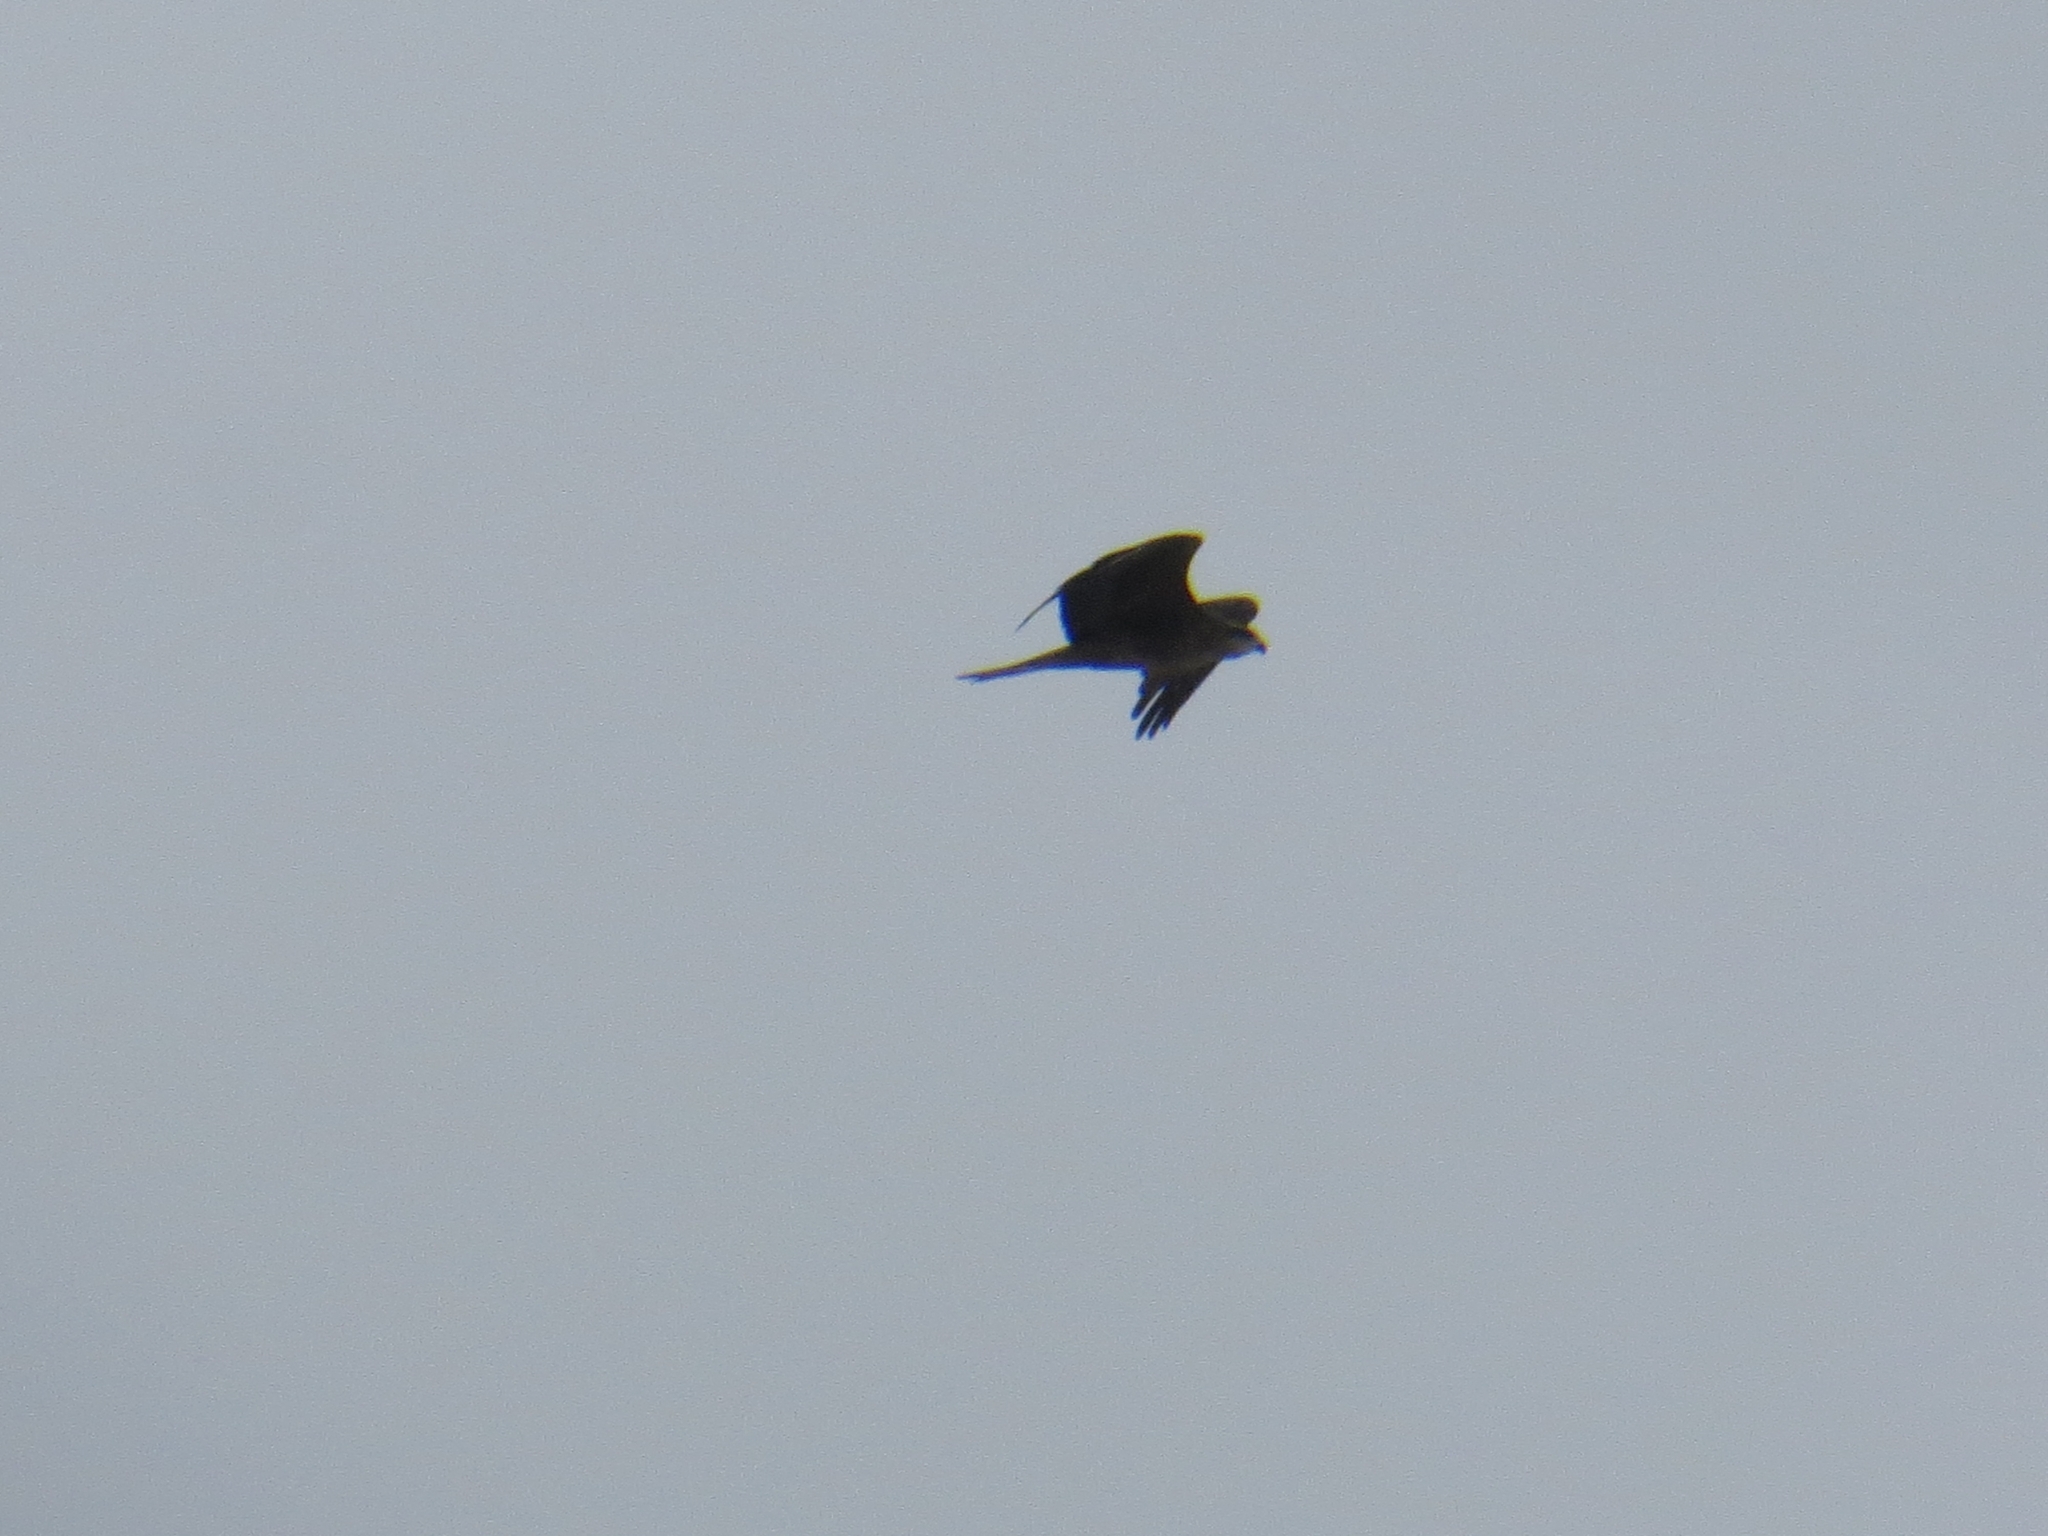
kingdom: Animalia
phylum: Chordata
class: Aves
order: Accipitriformes
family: Accipitridae
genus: Milvus
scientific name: Milvus migrans
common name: Black kite
